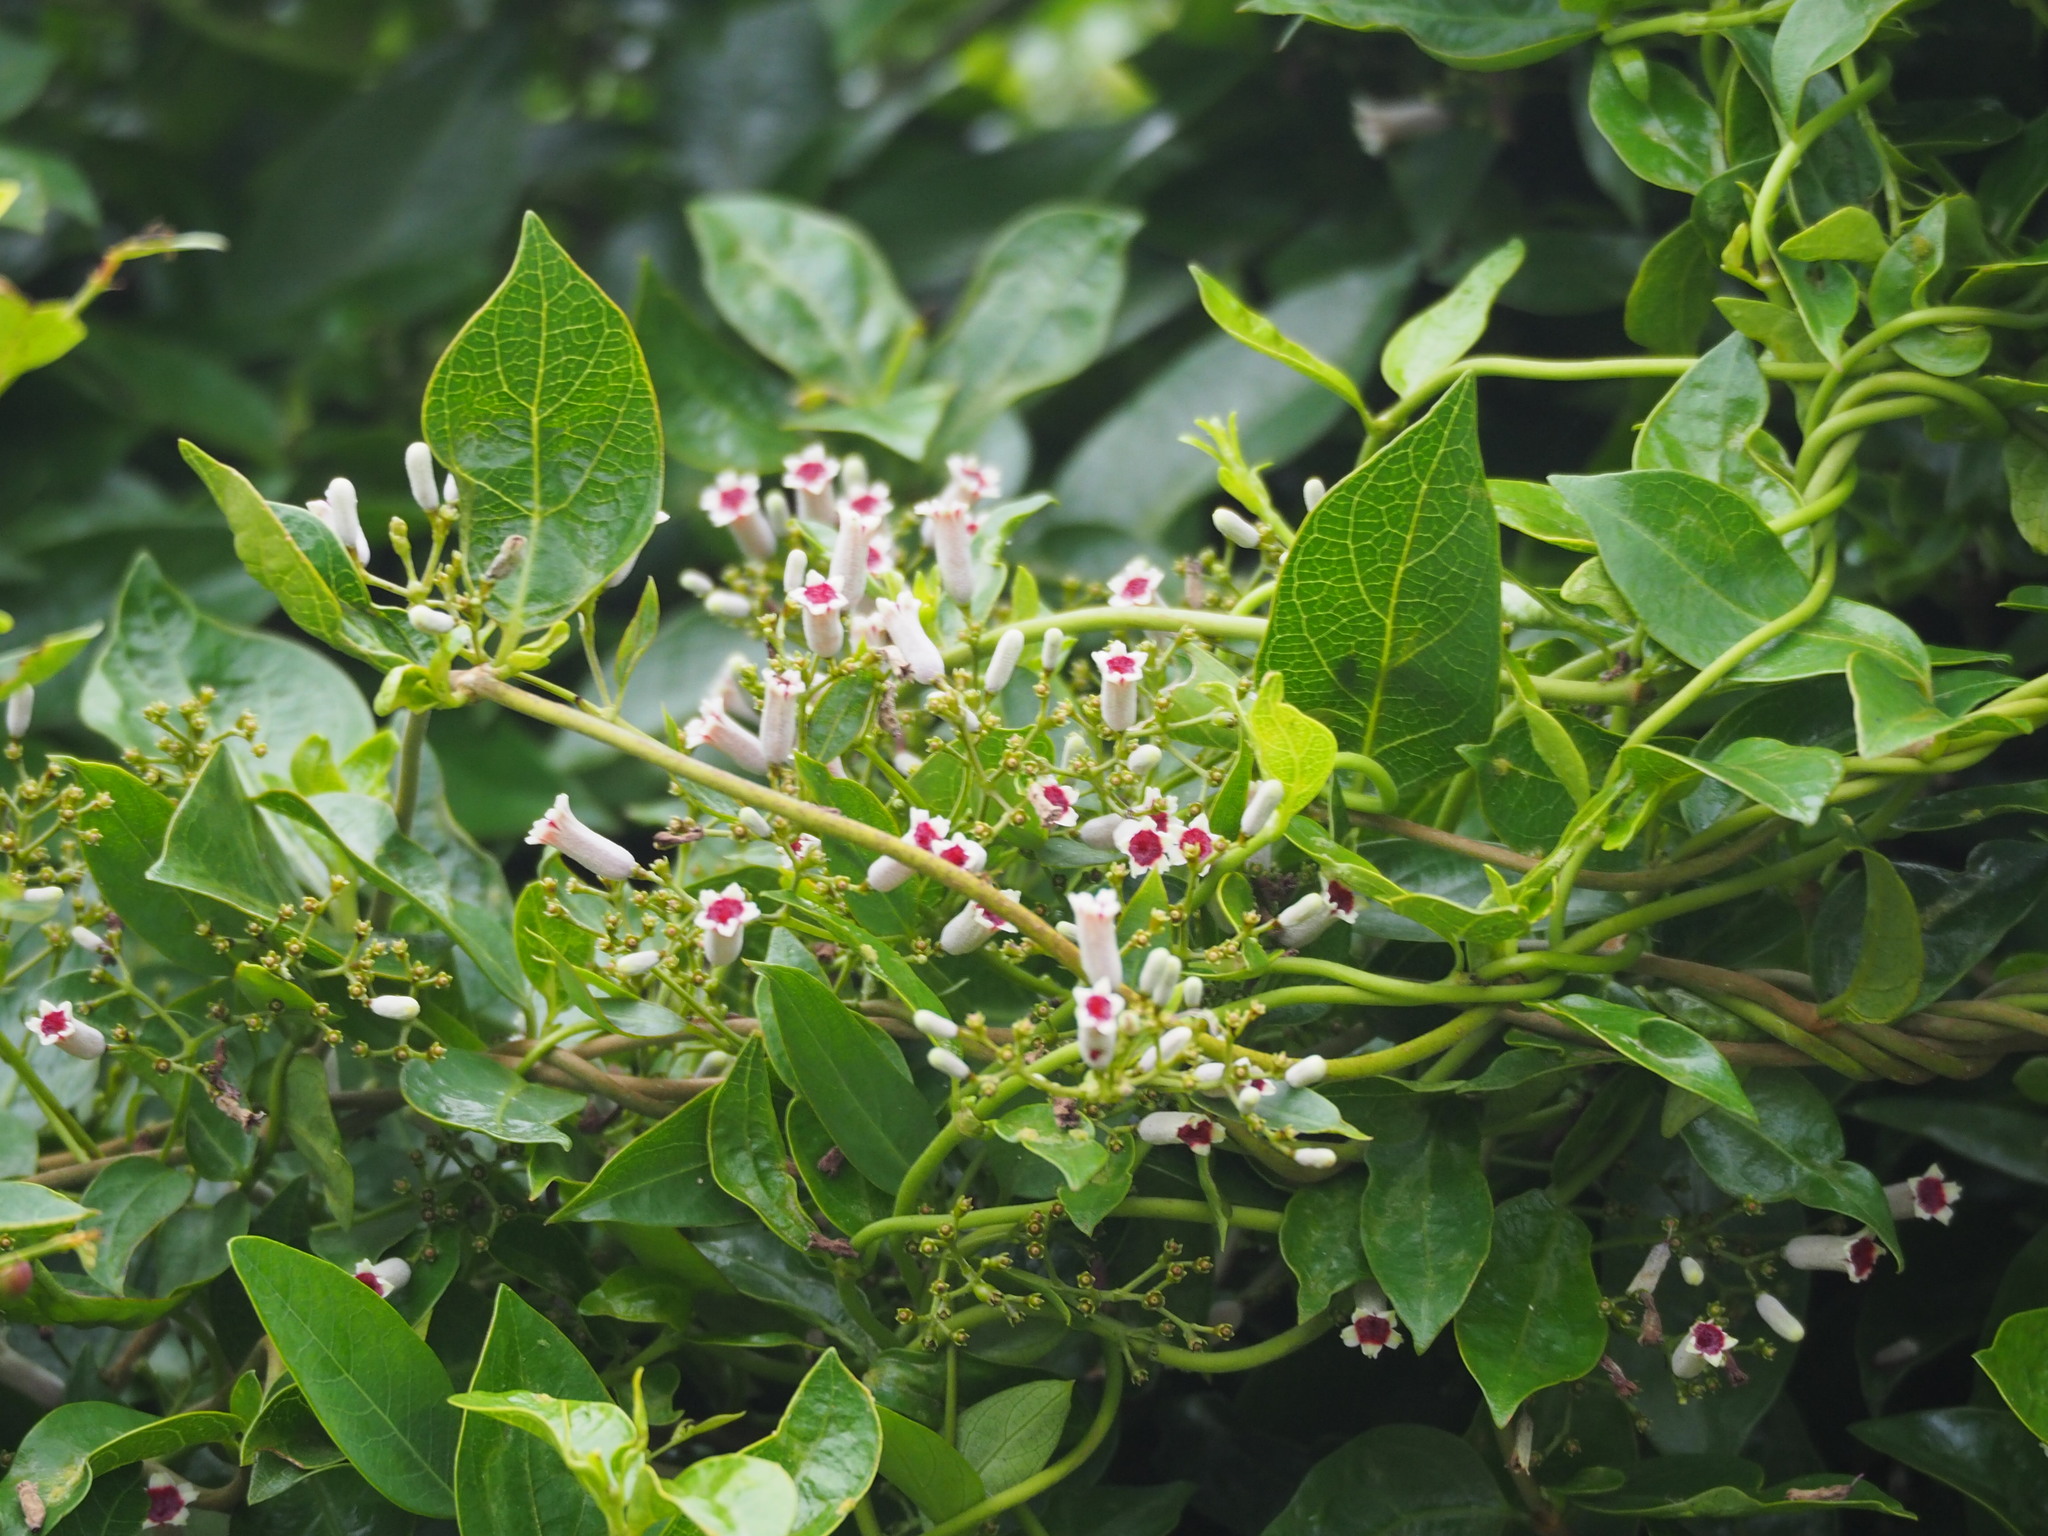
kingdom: Plantae
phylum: Tracheophyta
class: Magnoliopsida
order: Gentianales
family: Rubiaceae
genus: Paederia
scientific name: Paederia foetida
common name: Stinkvine
